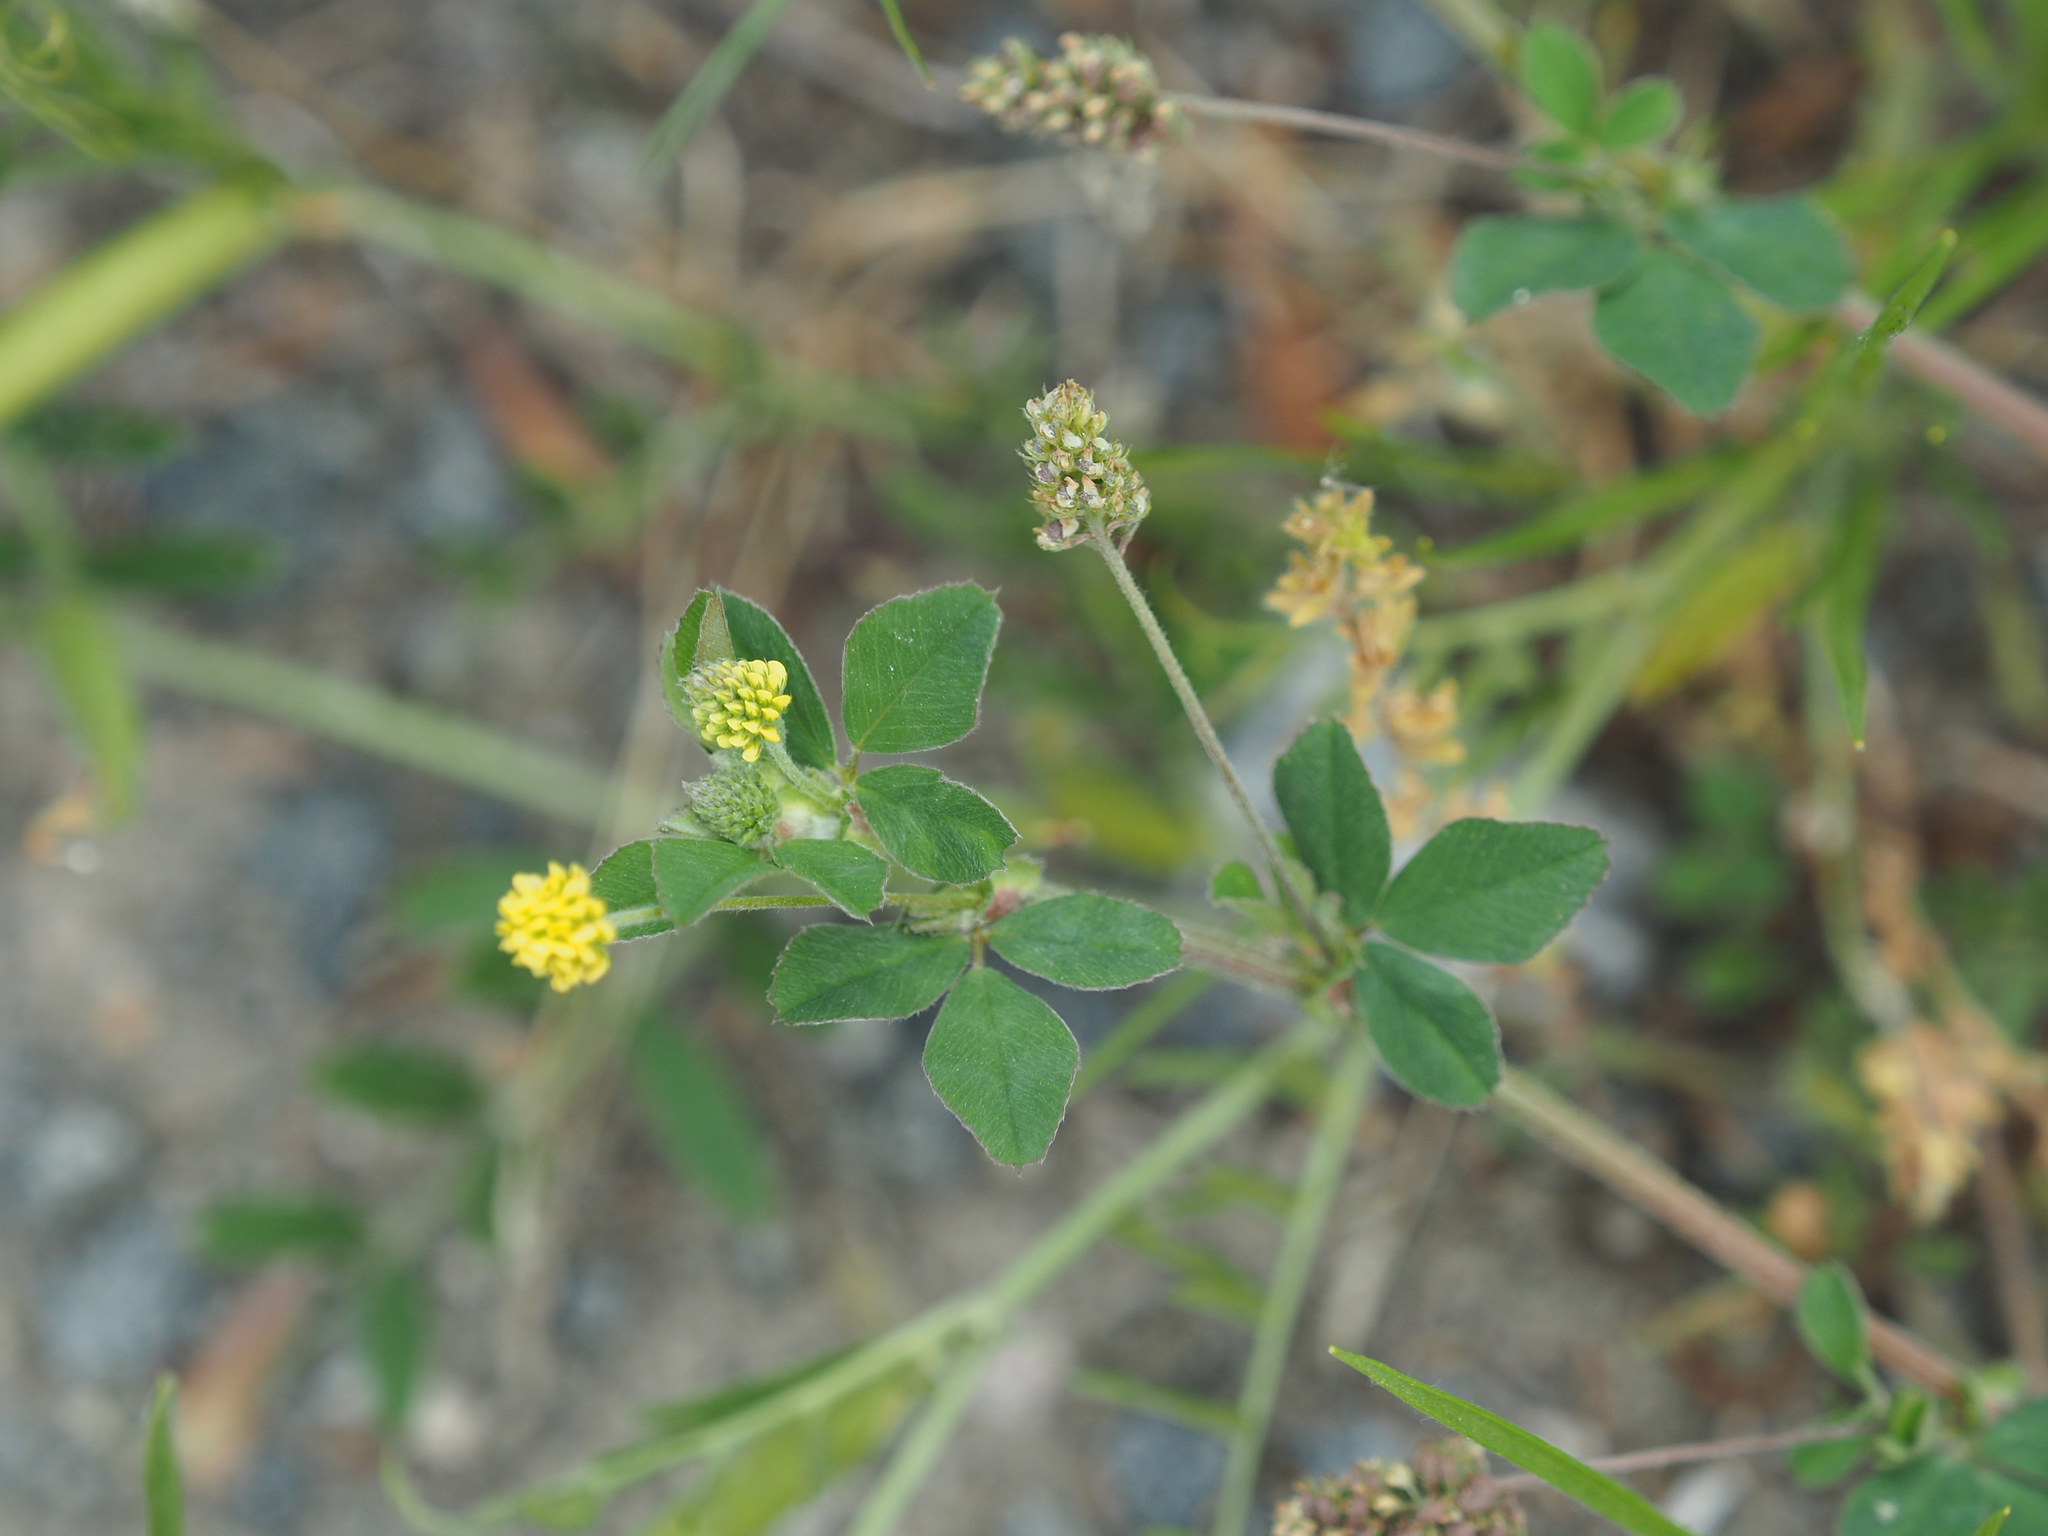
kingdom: Plantae
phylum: Tracheophyta
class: Magnoliopsida
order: Fabales
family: Fabaceae
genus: Medicago
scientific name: Medicago lupulina
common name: Black medick
